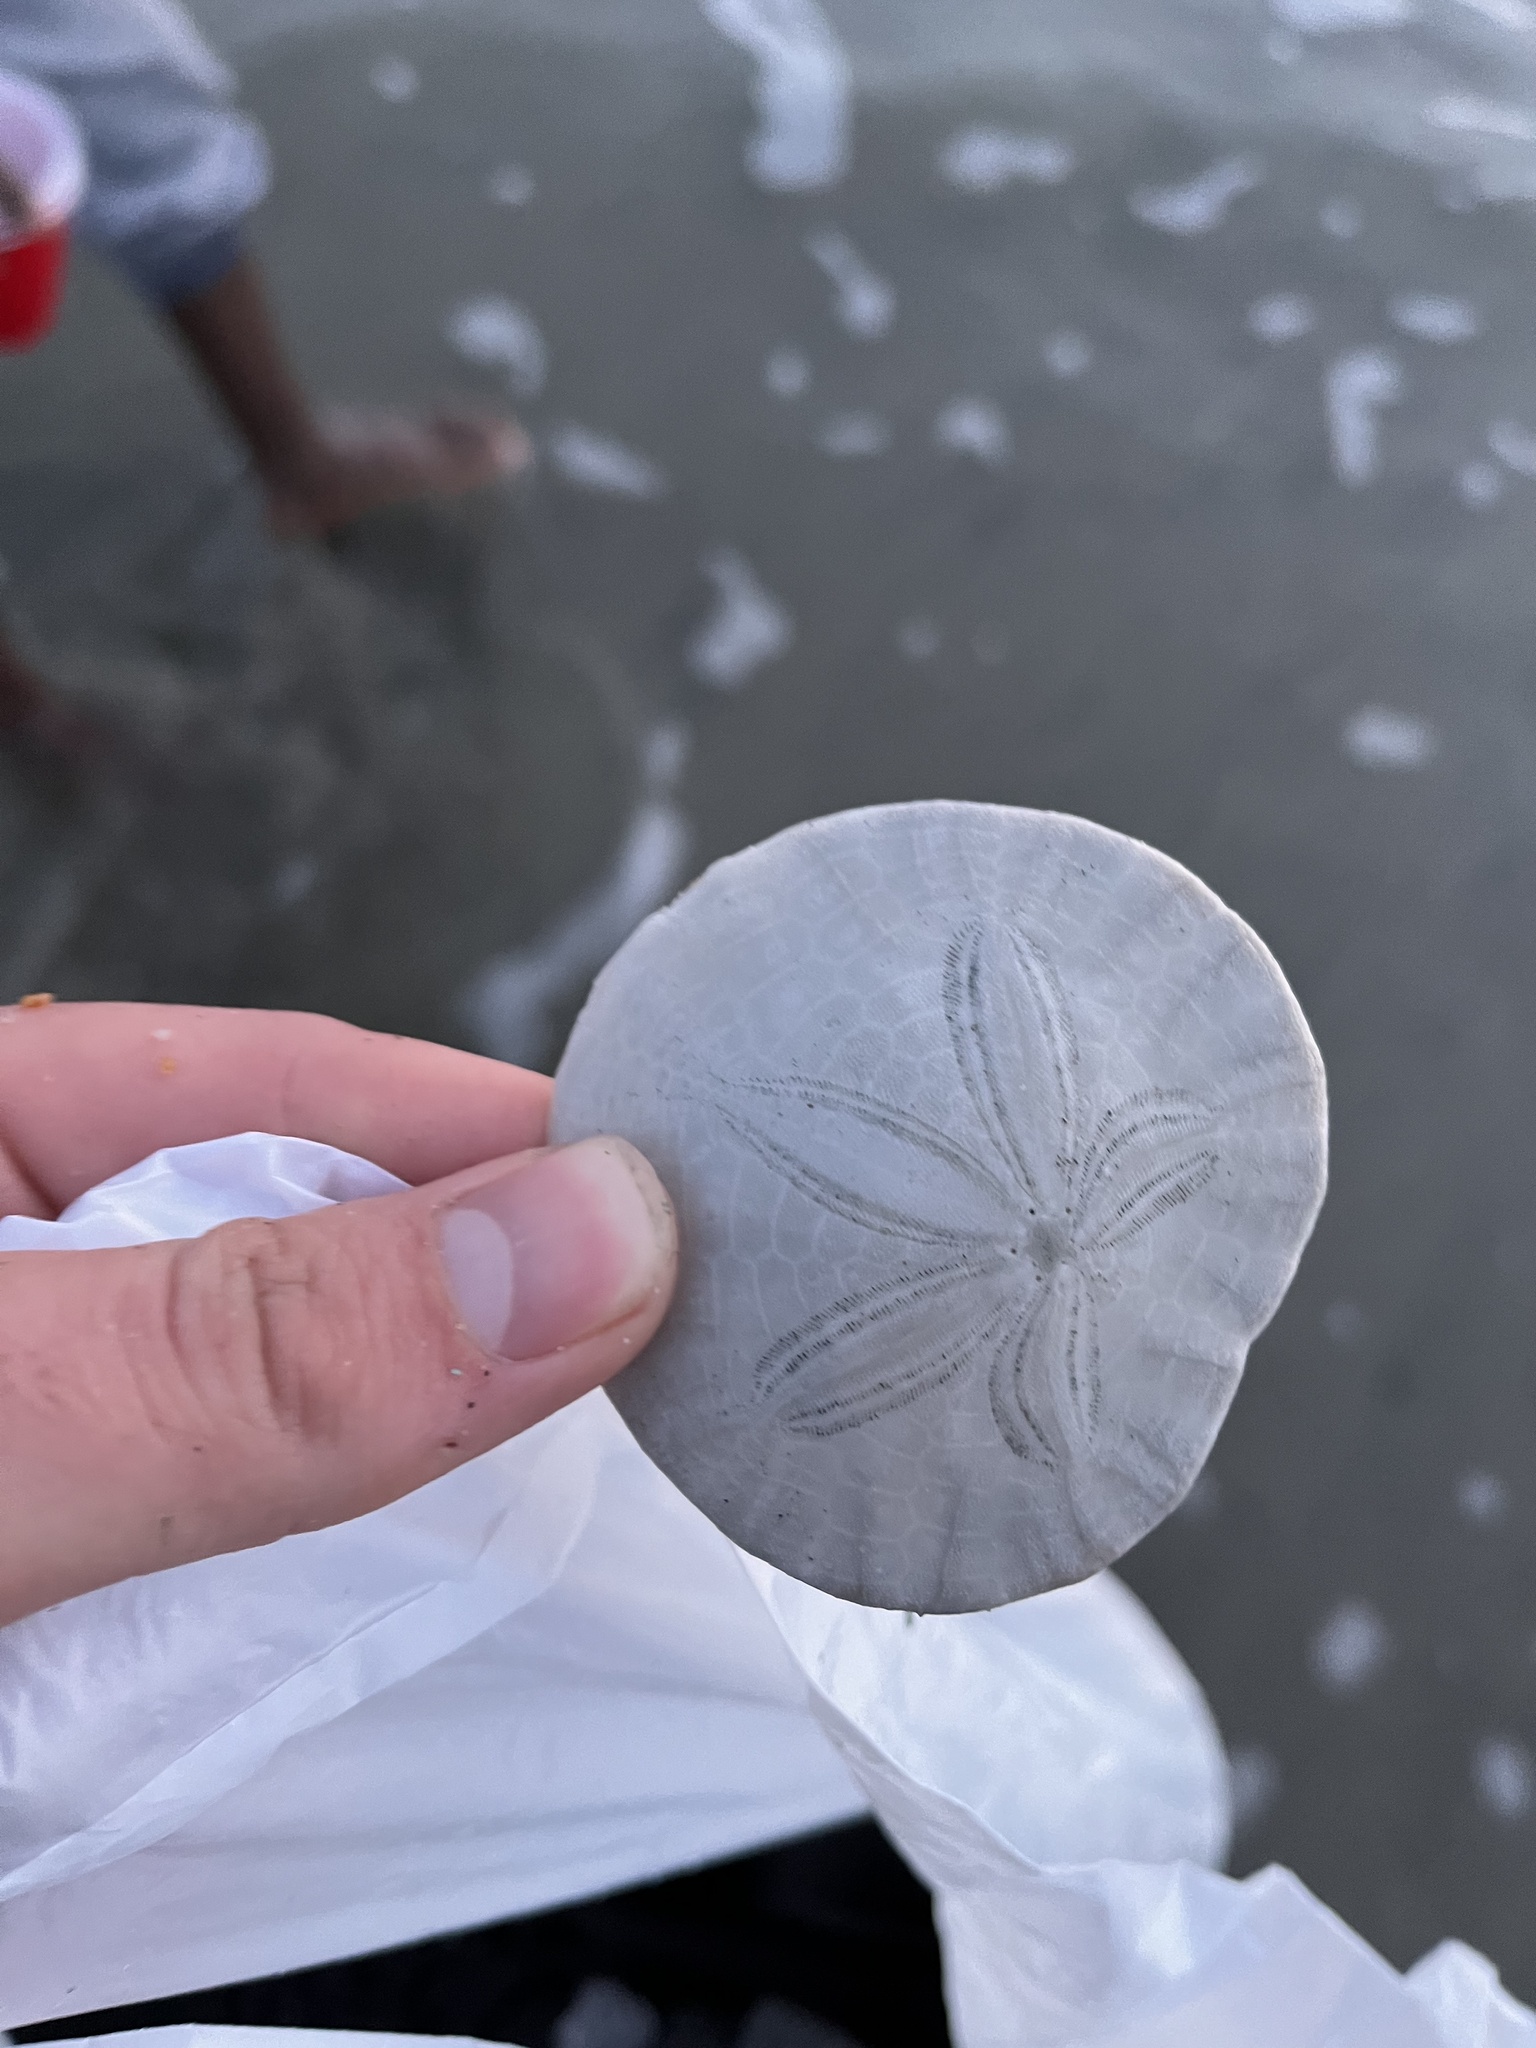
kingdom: Animalia
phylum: Echinodermata
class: Echinoidea
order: Echinolampadacea
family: Dendrasteridae
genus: Dendraster
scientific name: Dendraster excentricus
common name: Eccentric sand dollar sea urchin
